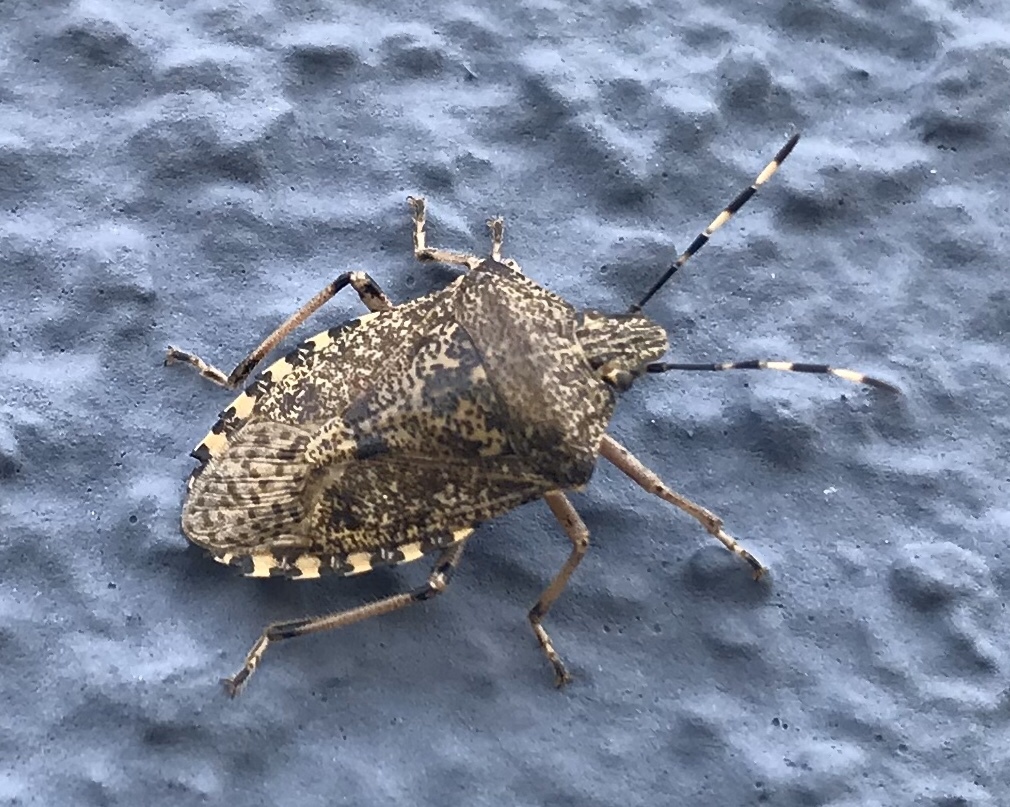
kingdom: Animalia
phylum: Arthropoda
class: Insecta
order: Hemiptera
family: Pentatomidae
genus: Rhaphigaster
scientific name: Rhaphigaster nebulosa
